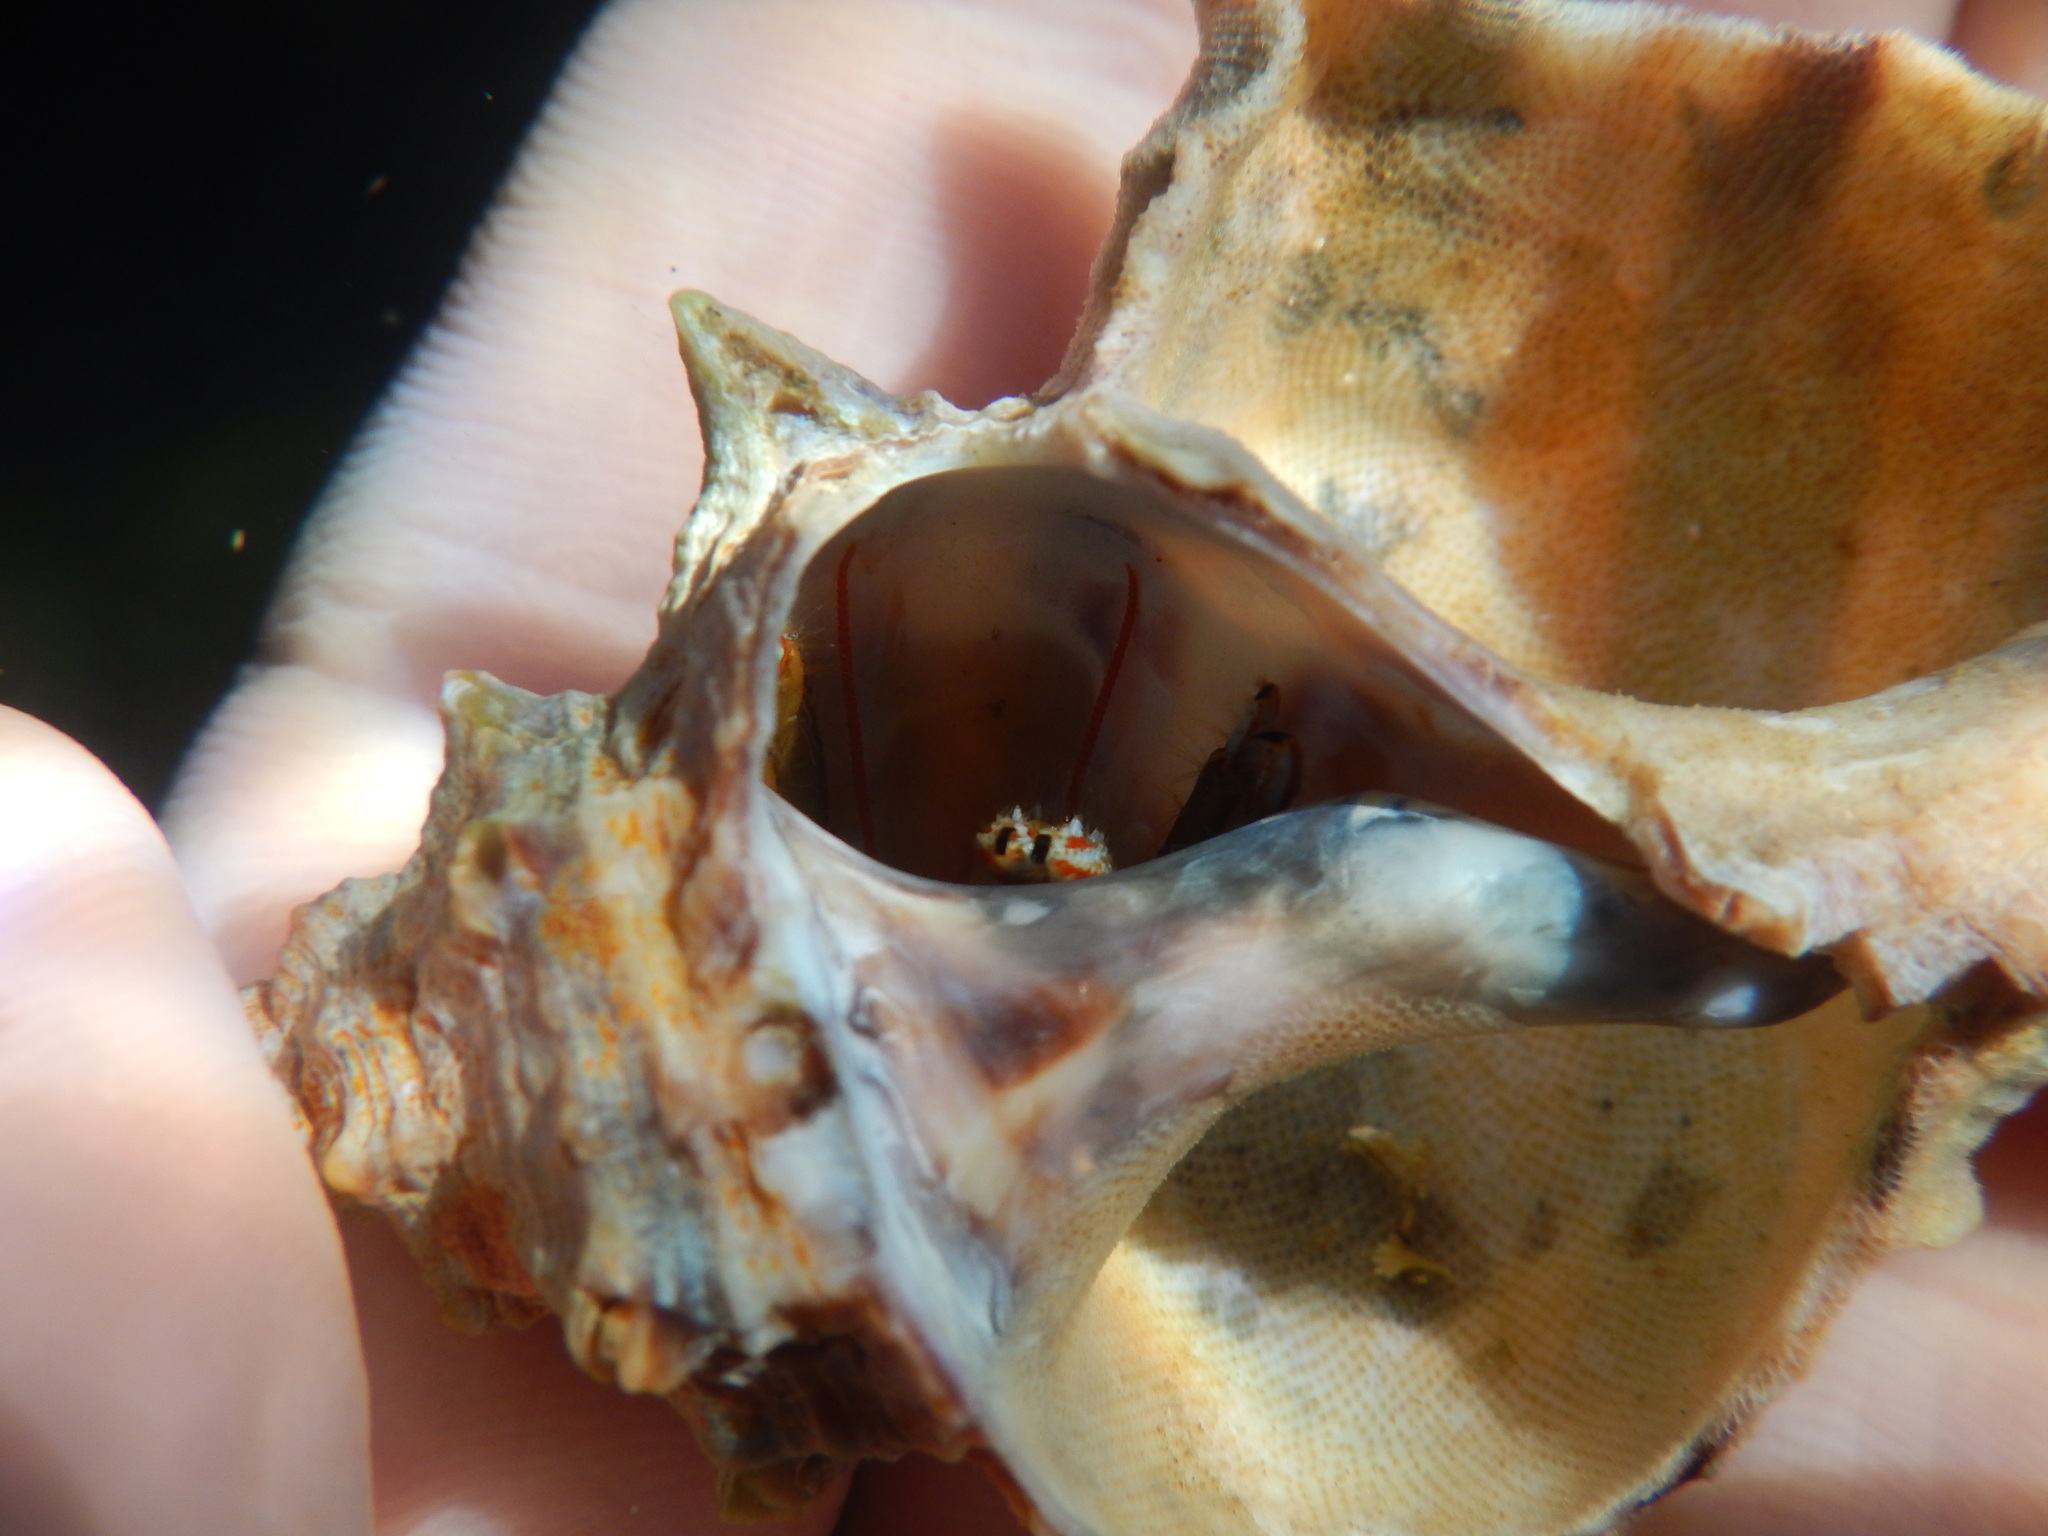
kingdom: Animalia
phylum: Arthropoda
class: Malacostraca
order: Decapoda
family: Diogenidae
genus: Clibanarius
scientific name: Clibanarius erythropus
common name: Hermit crab
